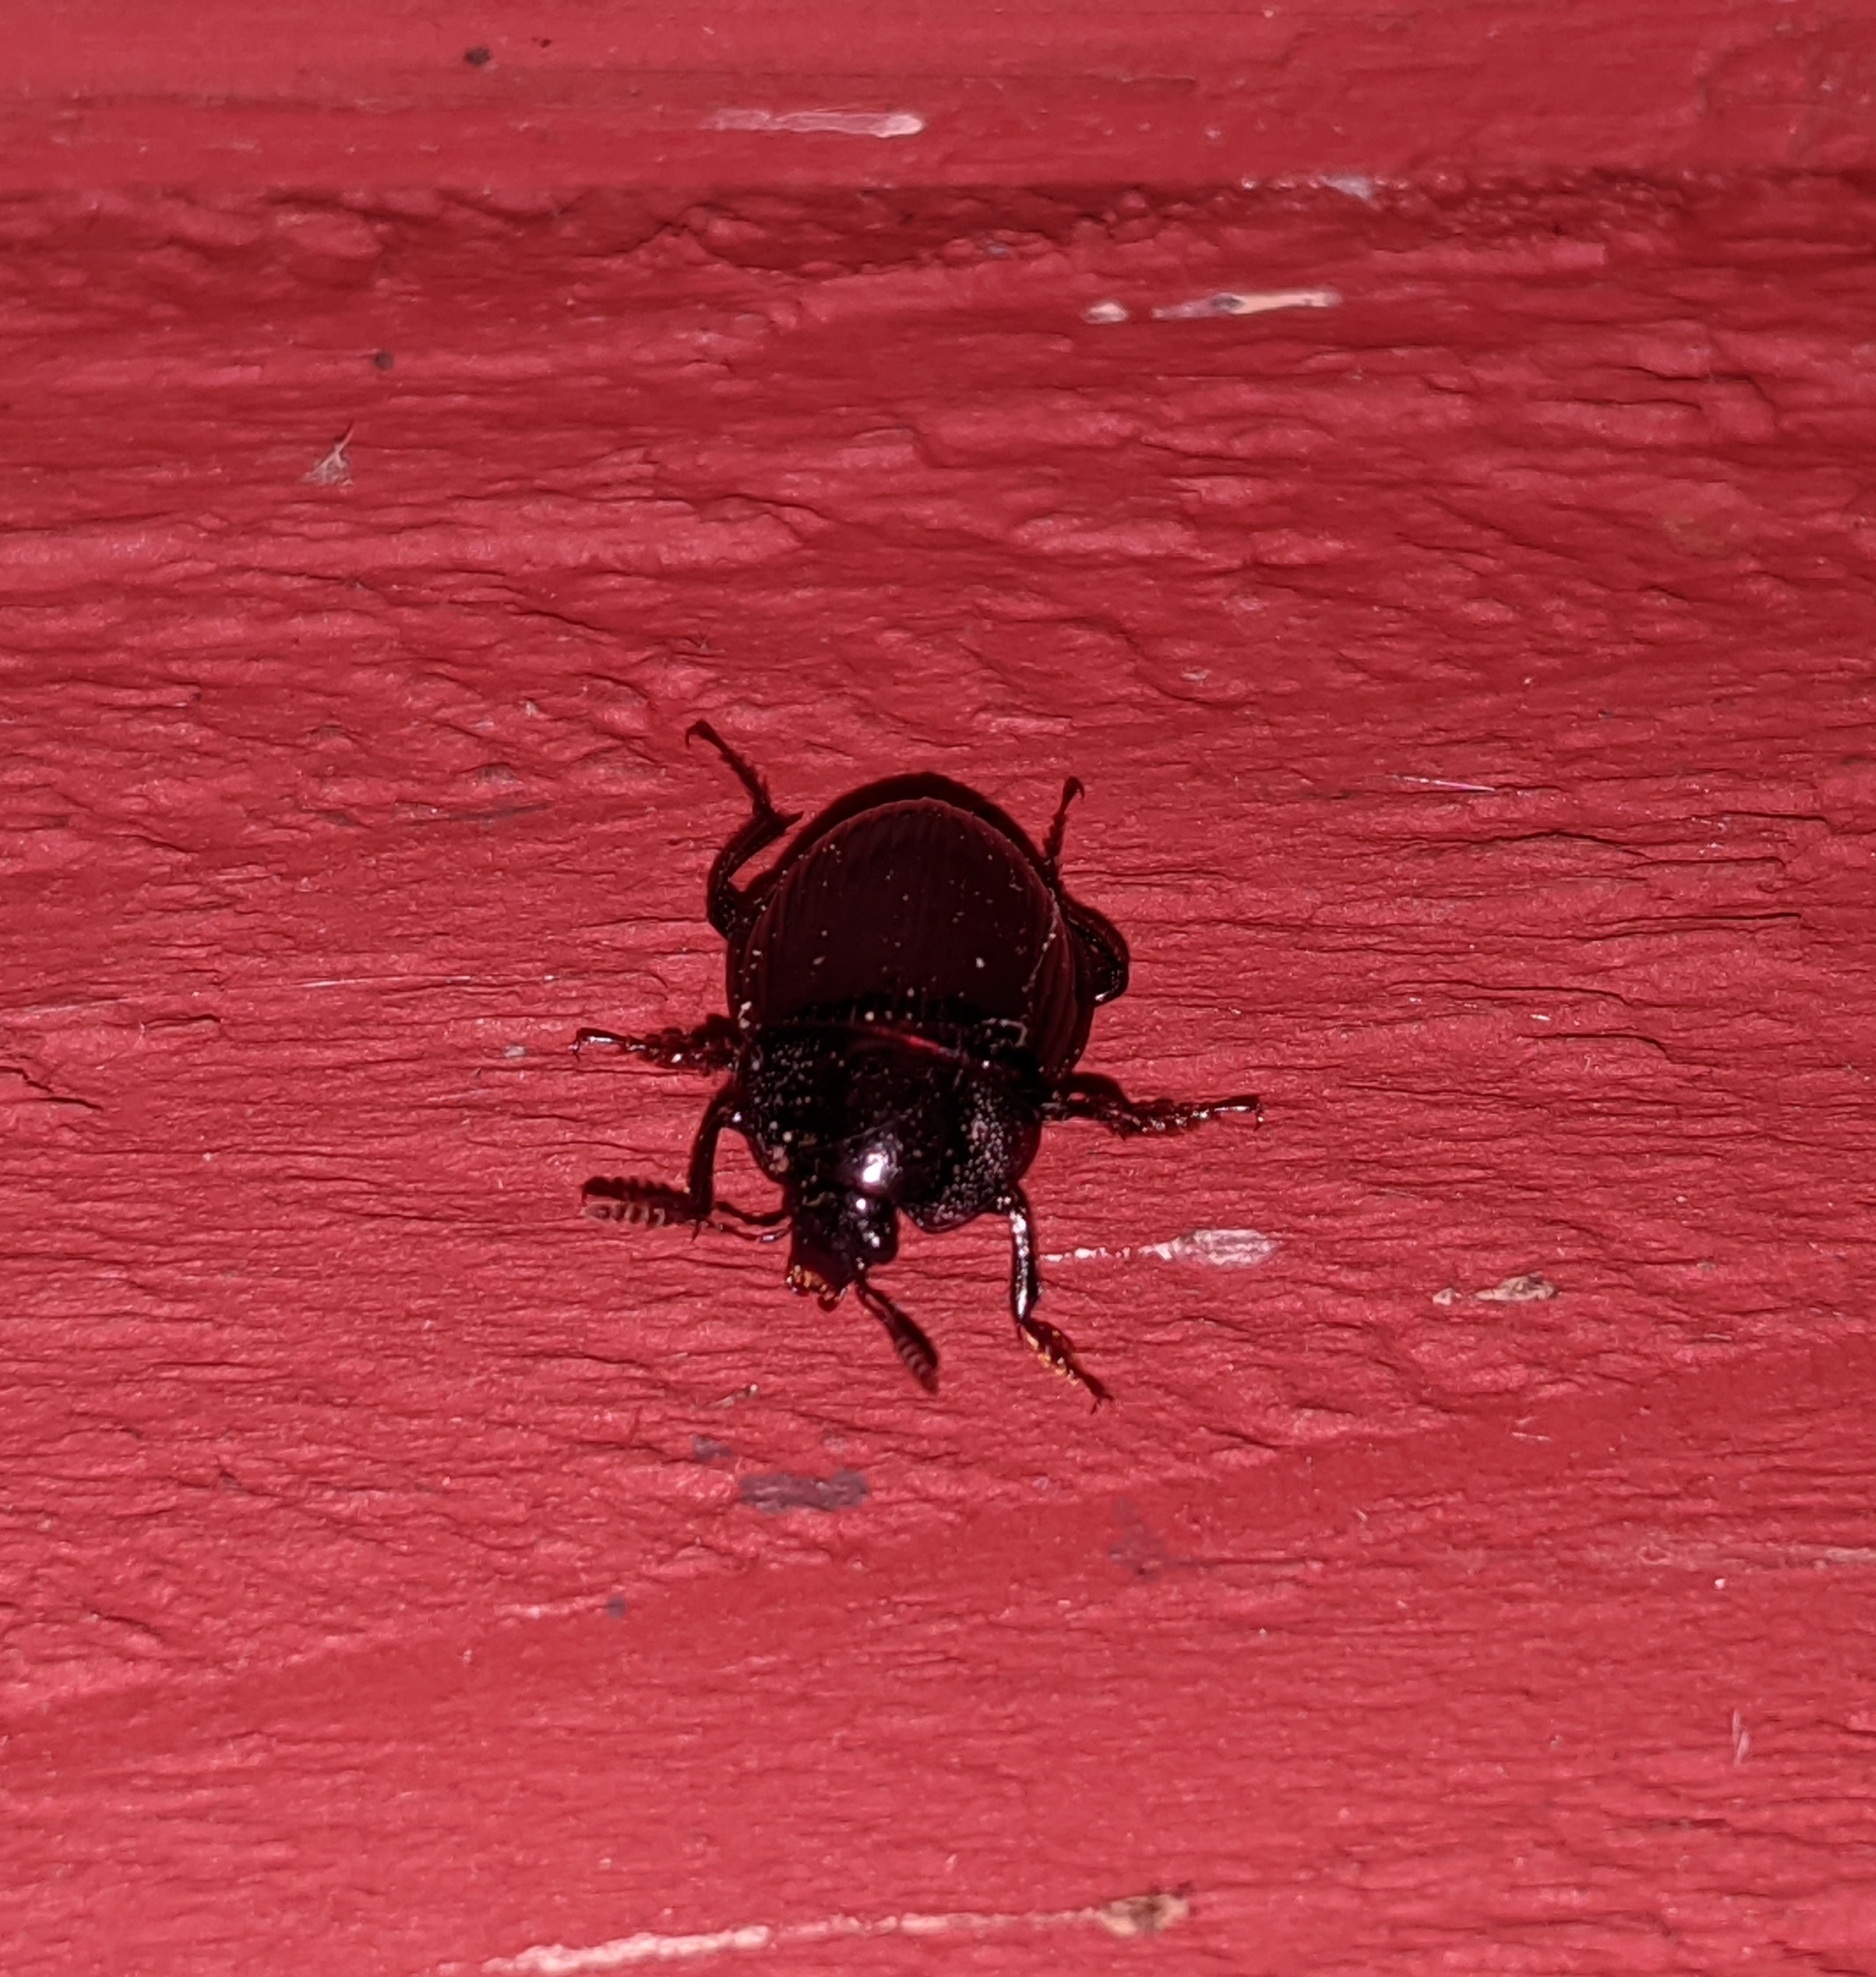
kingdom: Animalia
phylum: Arthropoda
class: Insecta
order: Coleoptera
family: Agyrtidae
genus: Necrophilus
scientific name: Necrophilus hydrophiloides
